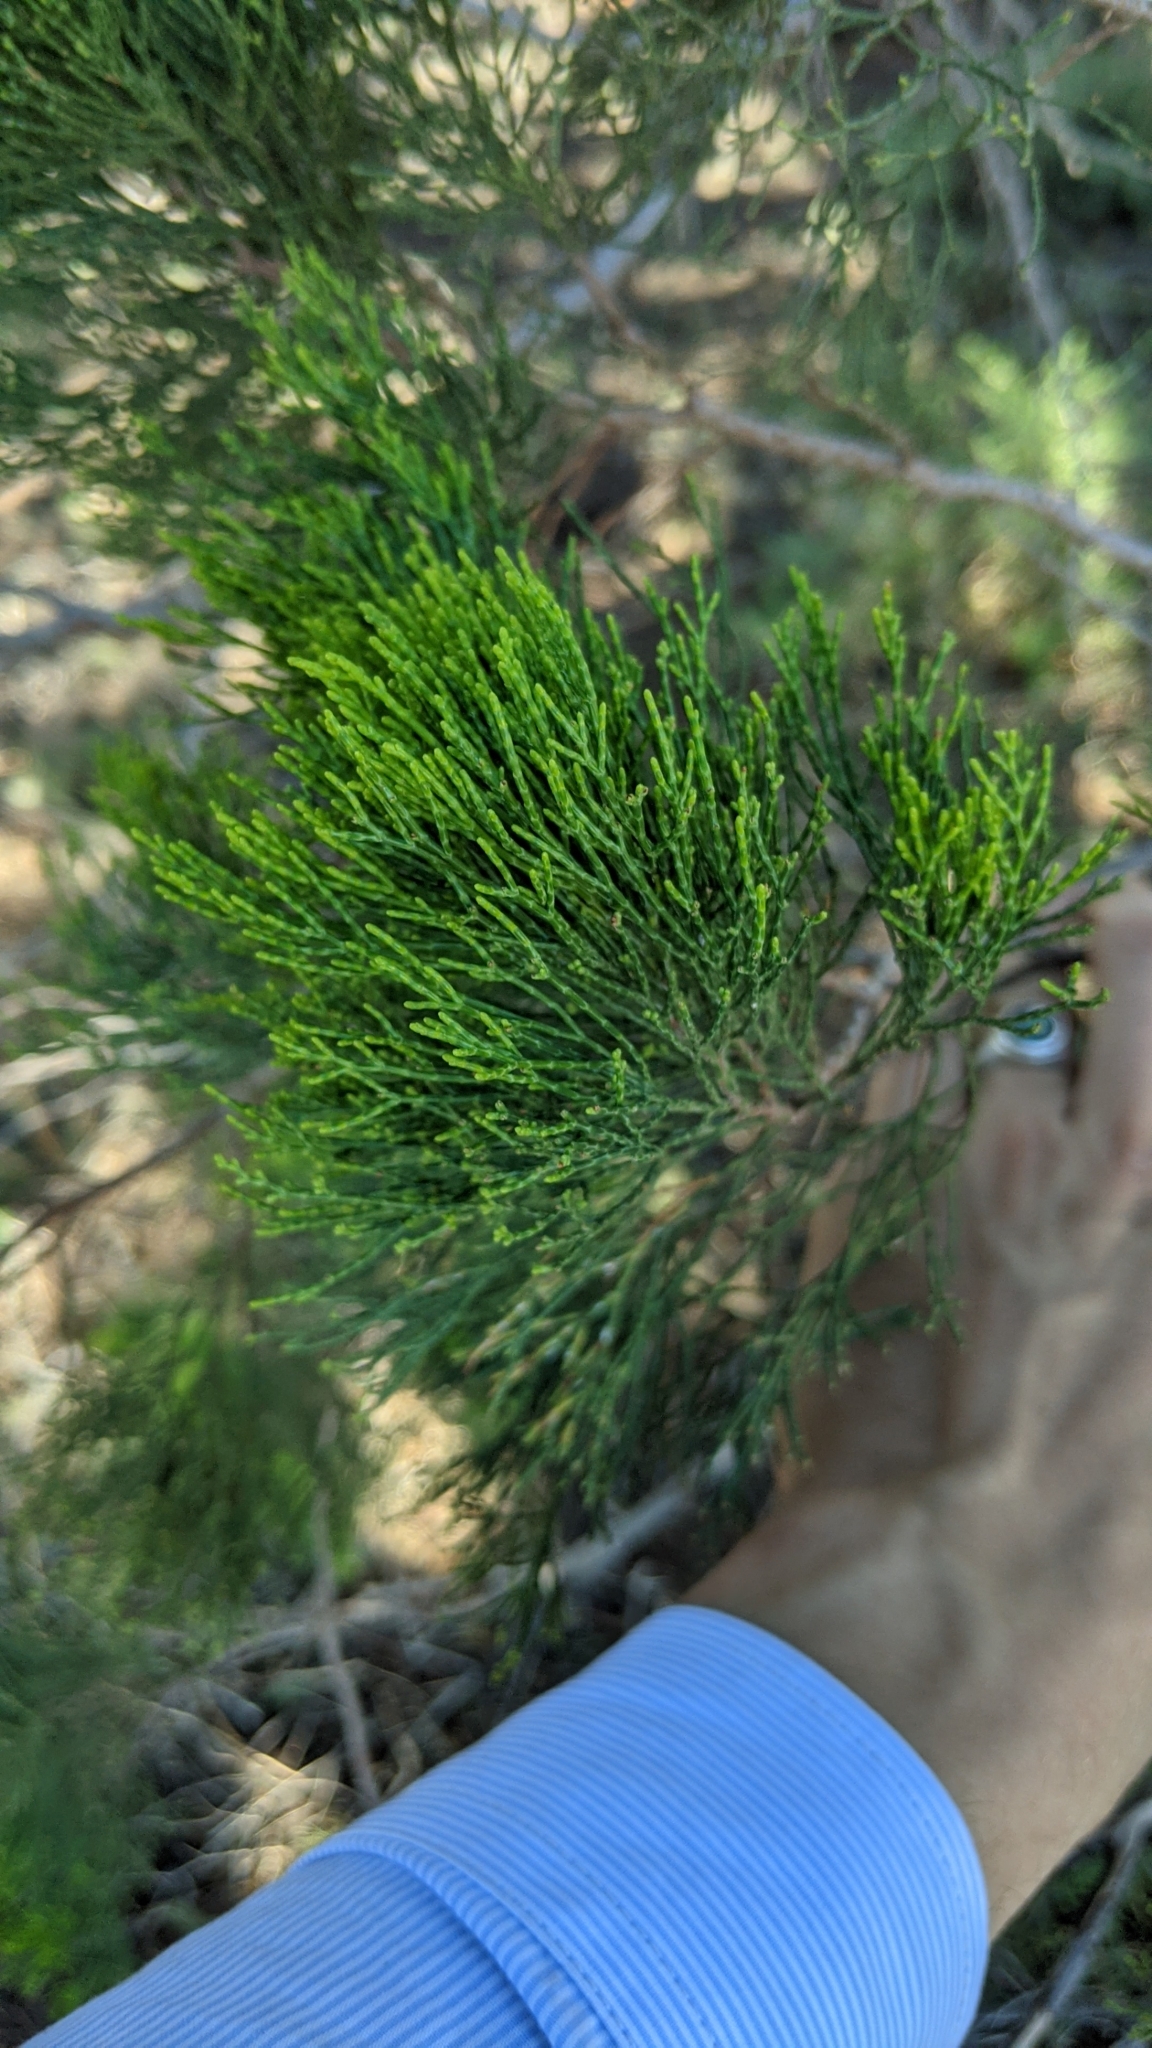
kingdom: Plantae
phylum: Tracheophyta
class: Pinopsida
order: Pinales
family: Cupressaceae
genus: Callitris
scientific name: Callitris preissii
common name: Mallee pine
